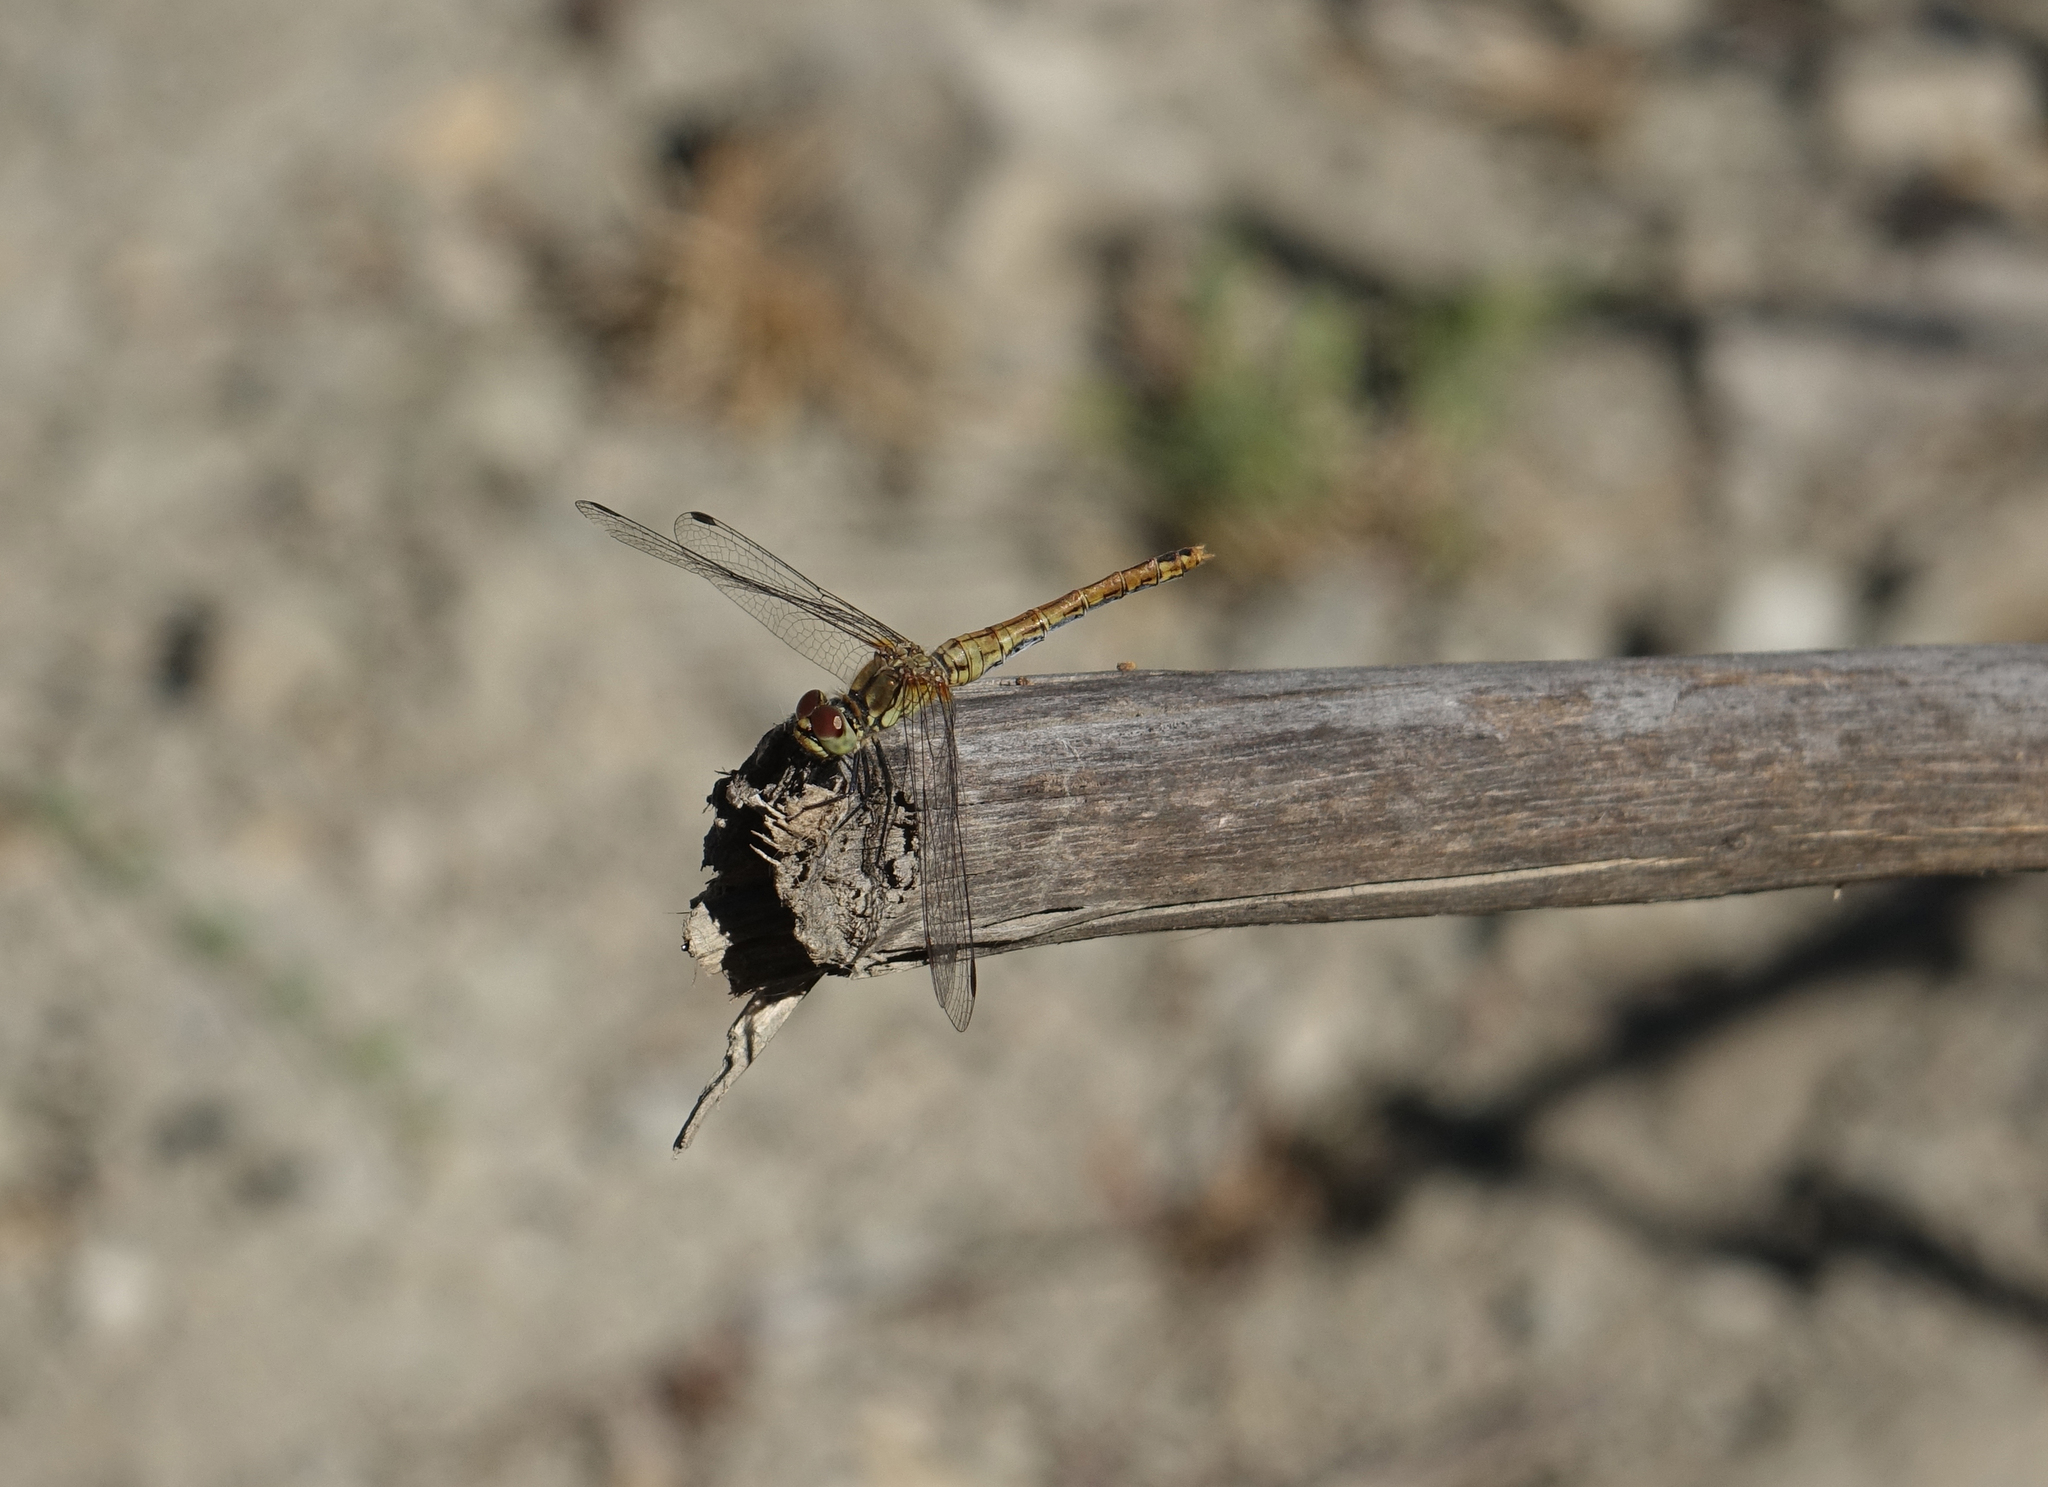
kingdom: Animalia
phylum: Arthropoda
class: Insecta
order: Odonata
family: Libellulidae
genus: Sympetrum
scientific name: Sympetrum sanguineum
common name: Ruddy darter
